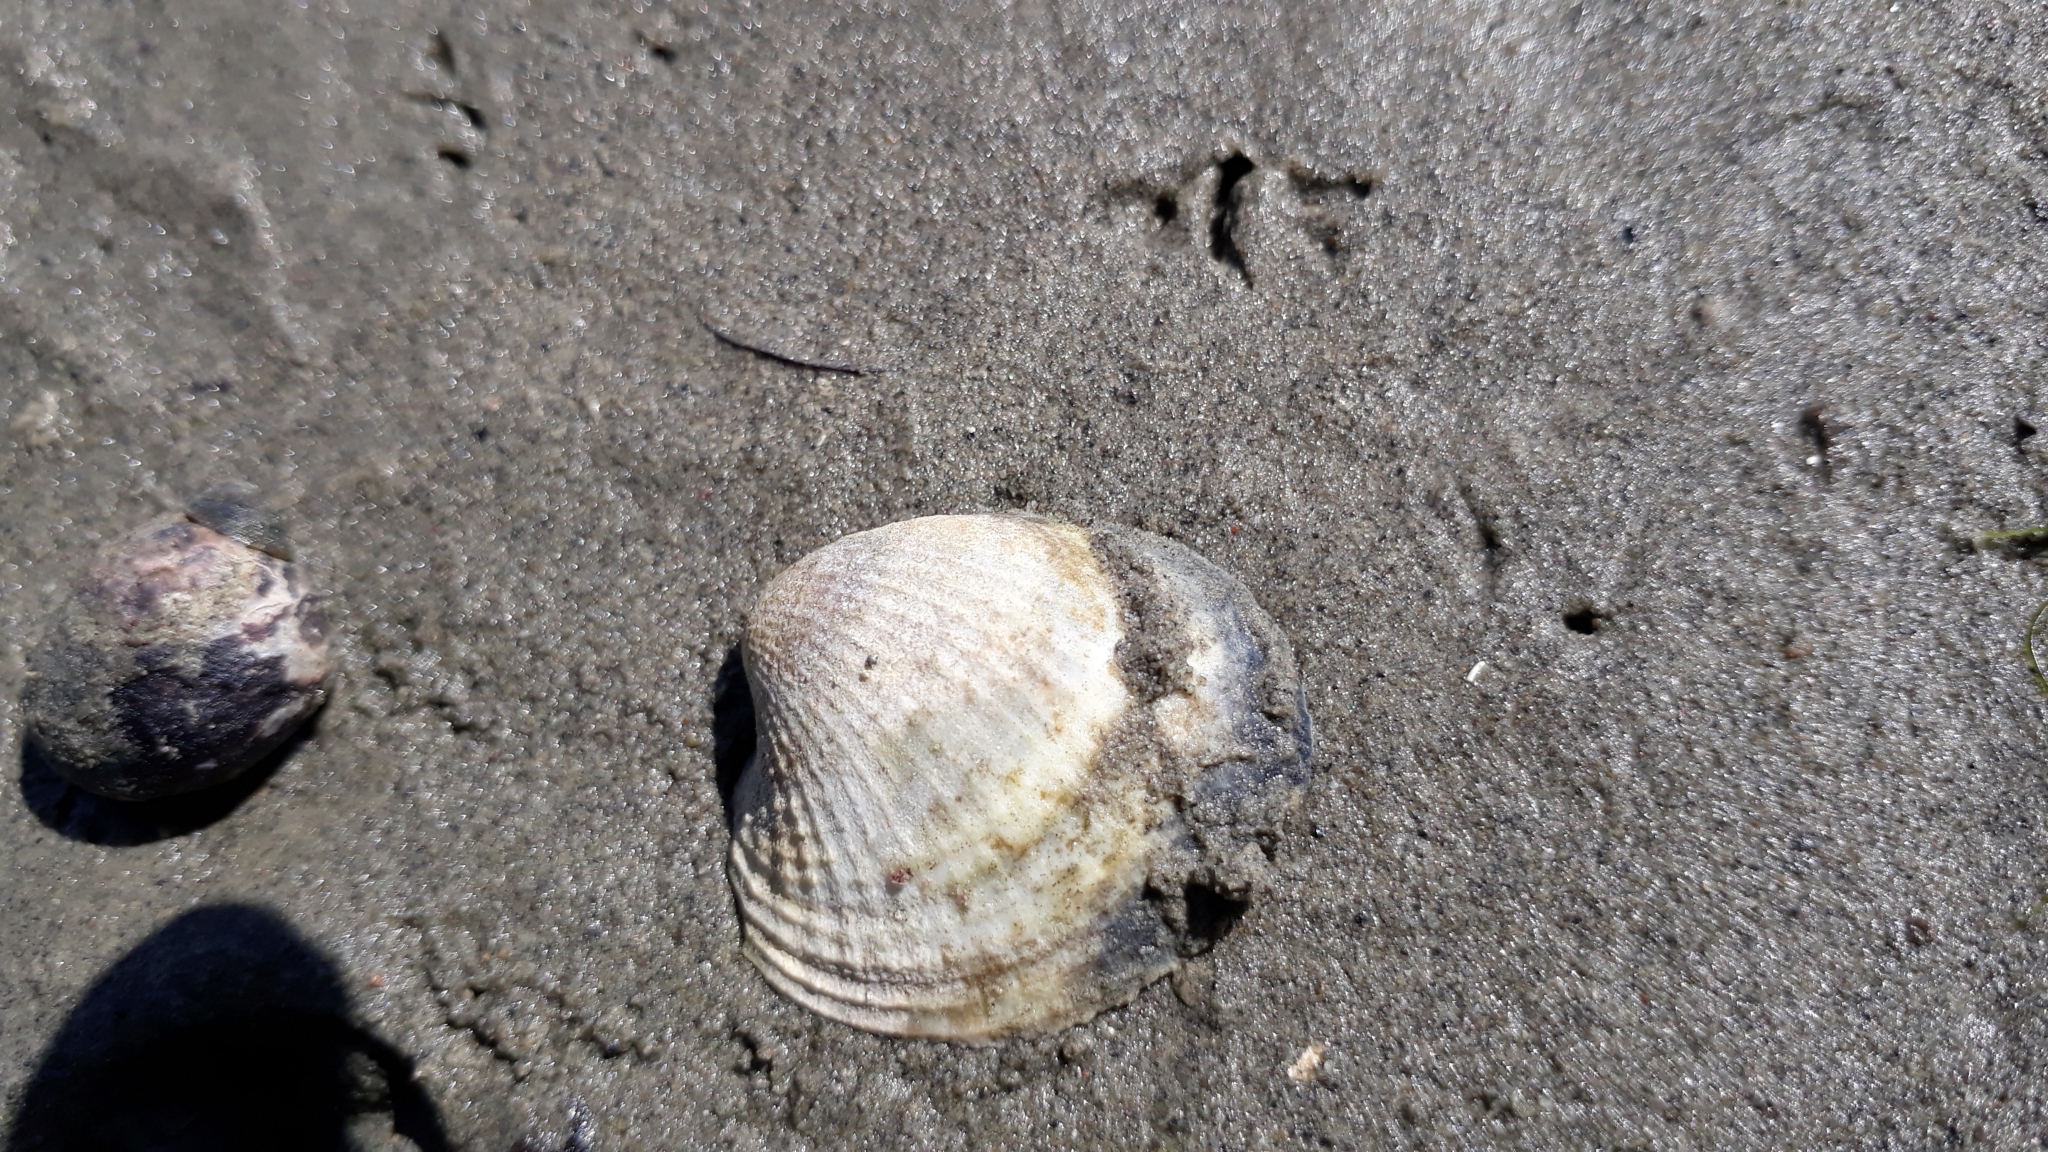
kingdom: Animalia
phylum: Mollusca
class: Bivalvia
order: Venerida
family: Veneridae
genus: Austrovenus
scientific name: Austrovenus stutchburyi
